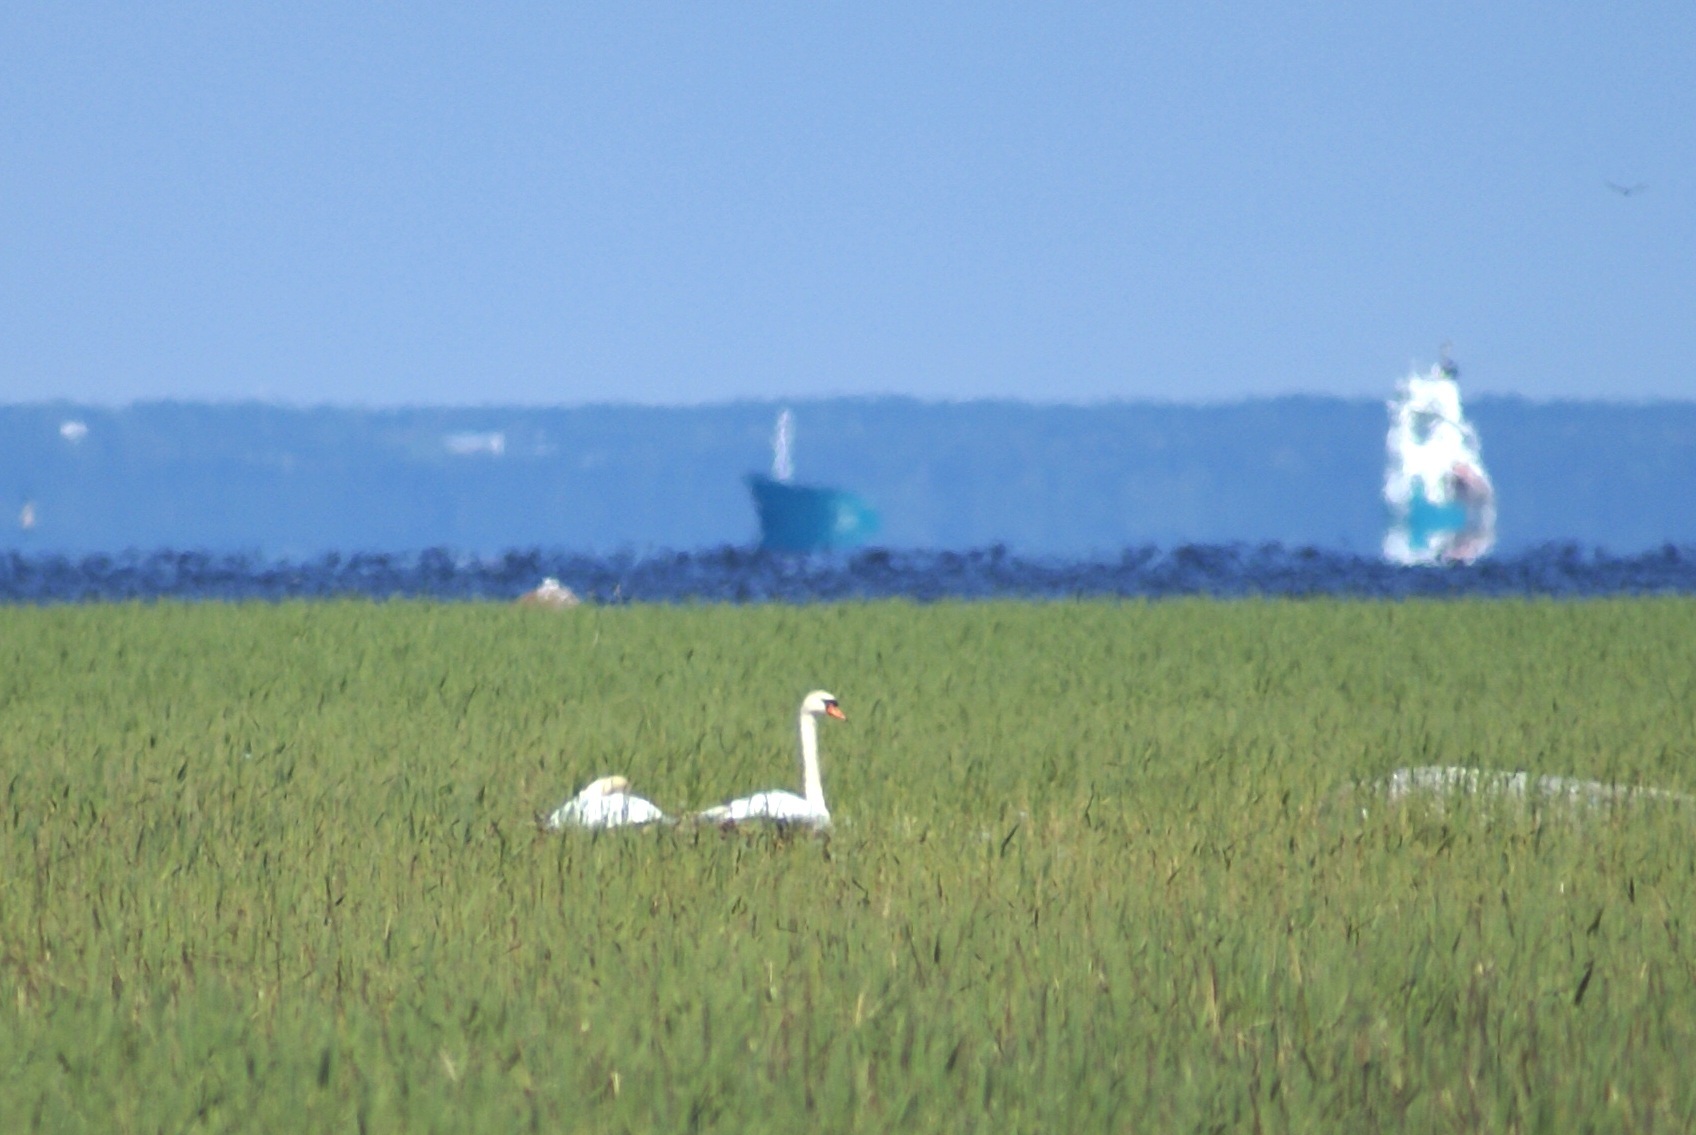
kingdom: Animalia
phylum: Chordata
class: Aves
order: Anseriformes
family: Anatidae
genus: Cygnus
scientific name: Cygnus olor
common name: Mute swan
